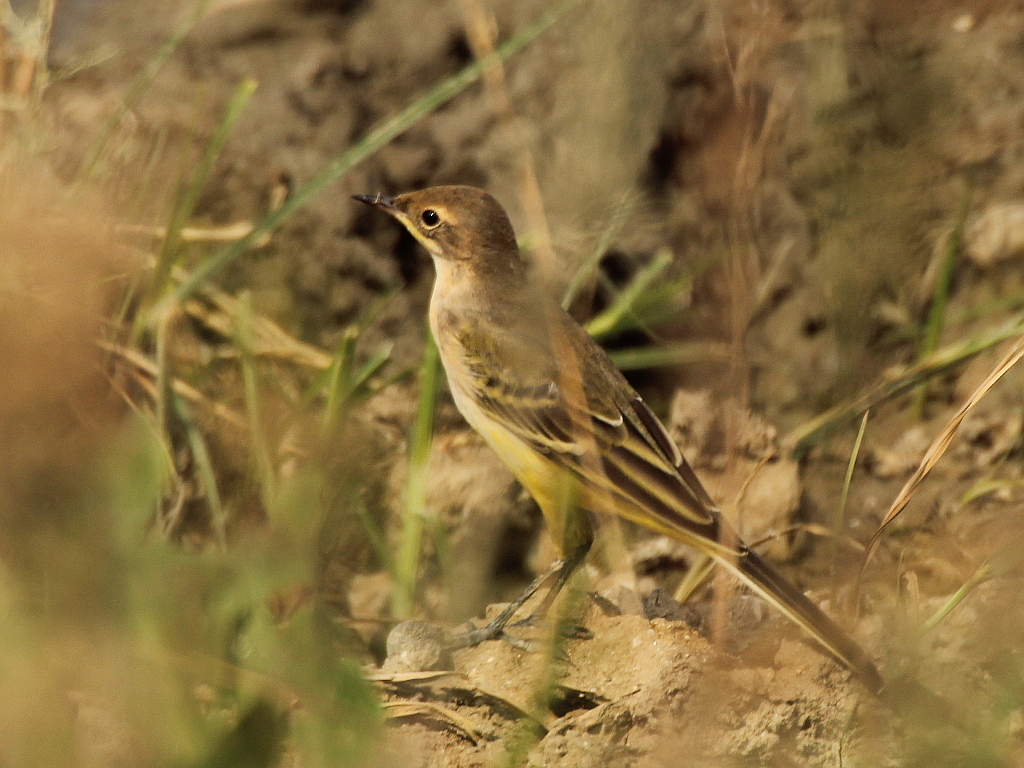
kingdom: Animalia
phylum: Chordata
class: Aves
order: Passeriformes
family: Motacillidae
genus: Motacilla
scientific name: Motacilla flava
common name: Western yellow wagtail
